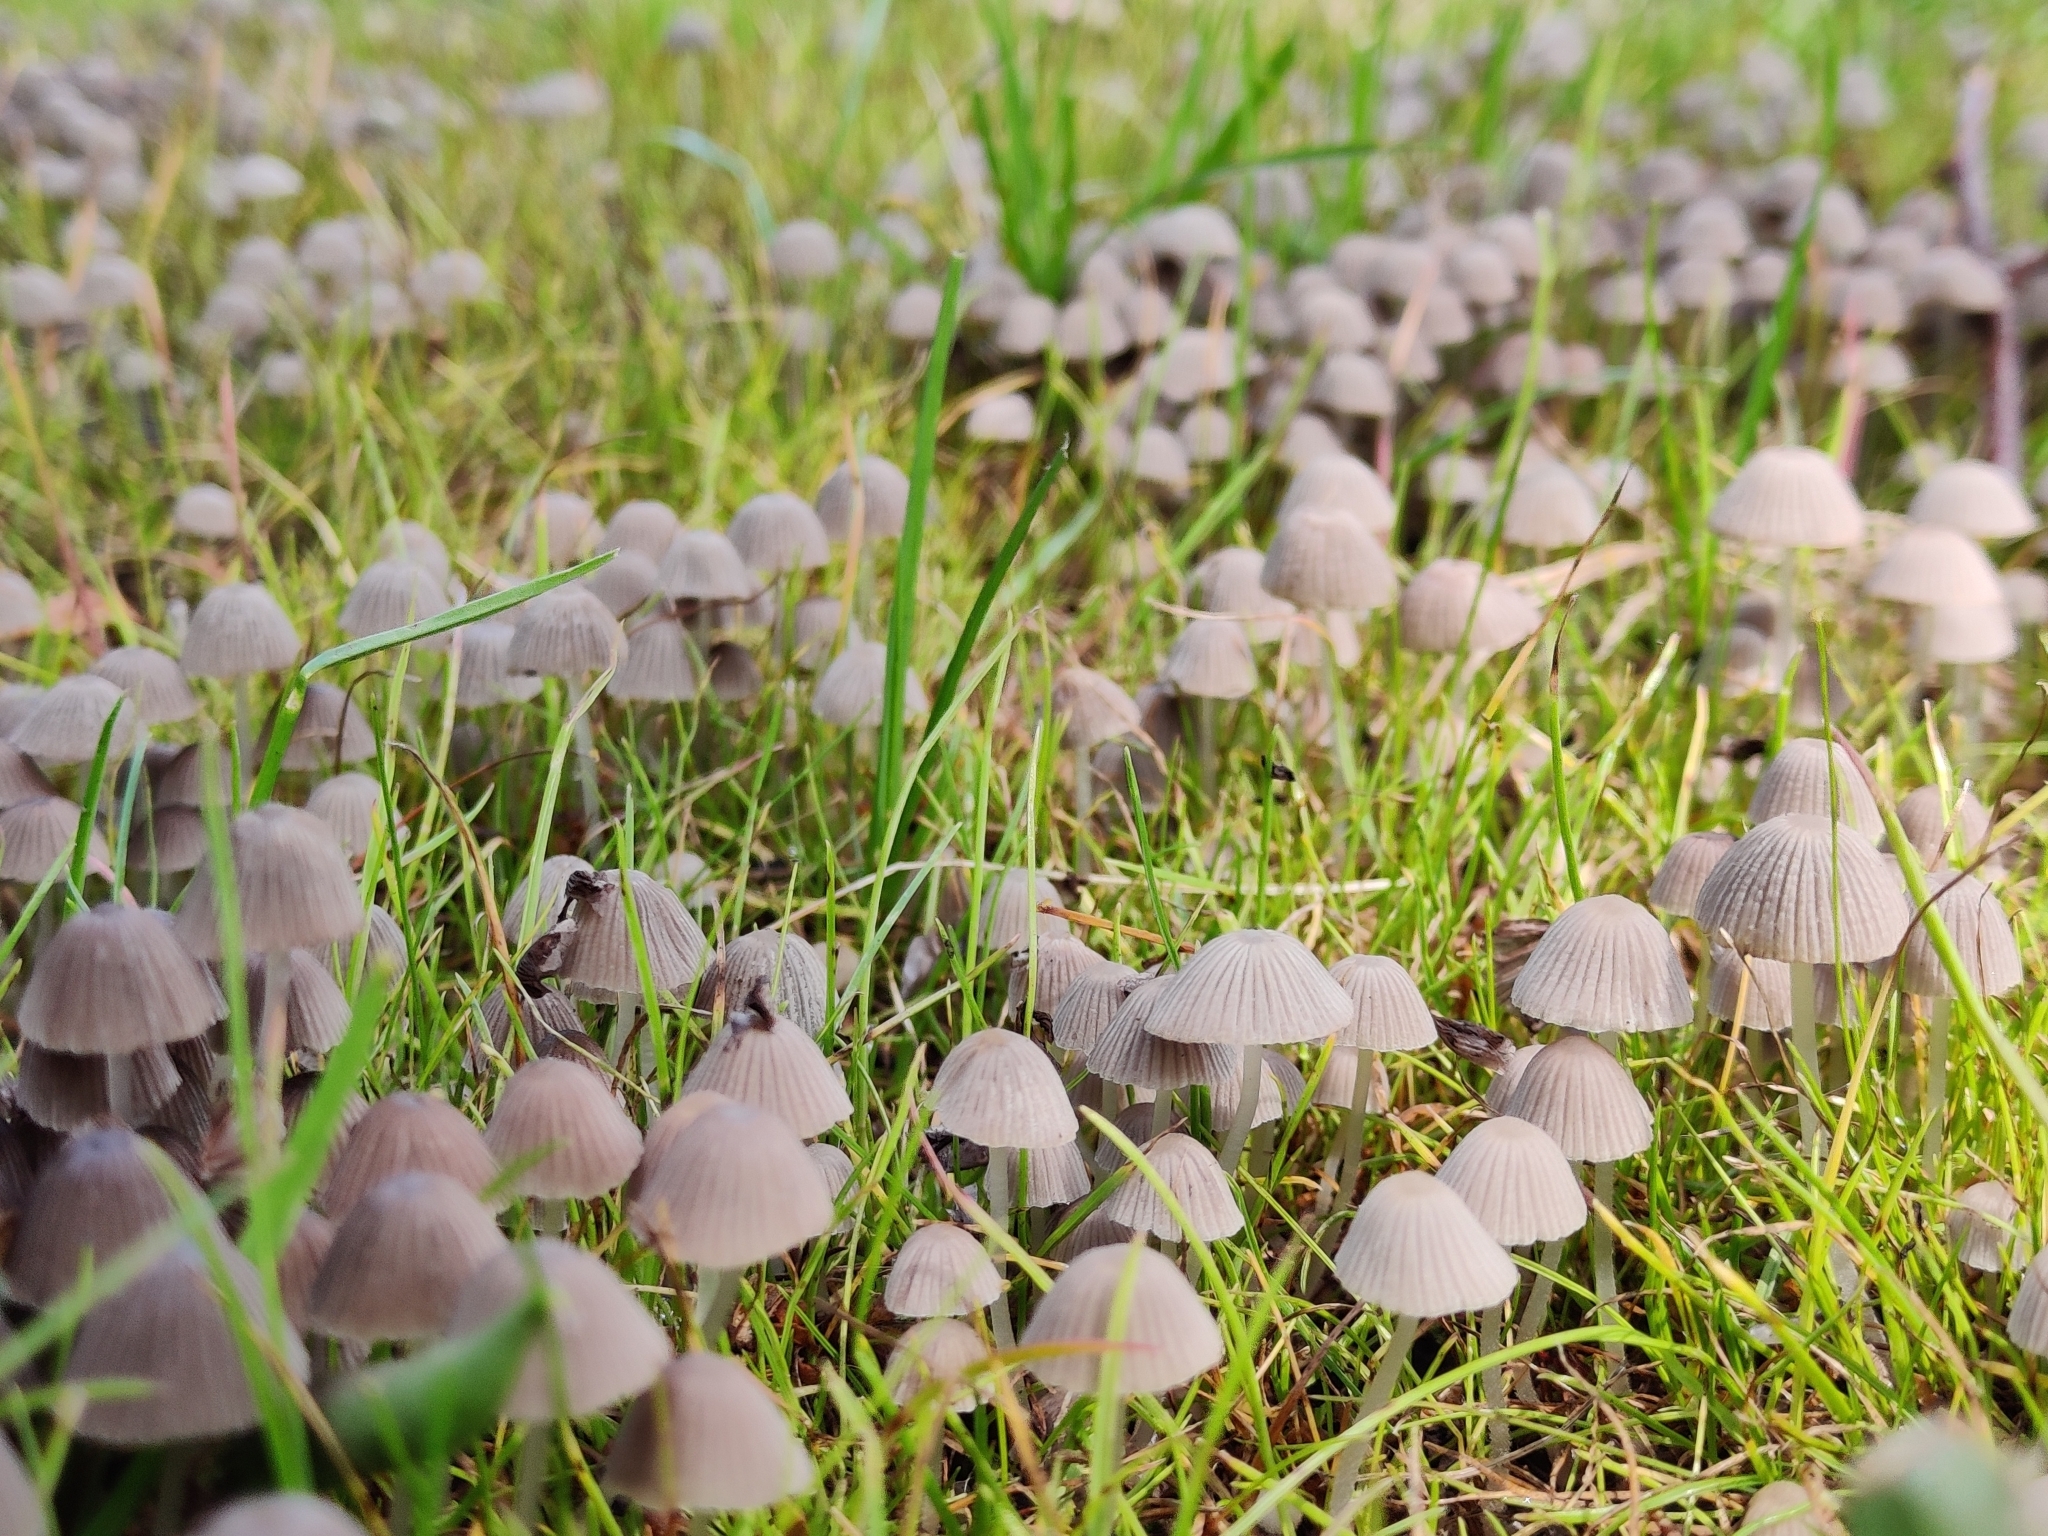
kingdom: Fungi
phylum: Basidiomycota
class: Agaricomycetes
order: Agaricales
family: Psathyrellaceae
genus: Coprinellus
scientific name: Coprinellus disseminatus
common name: Fairies' bonnets
